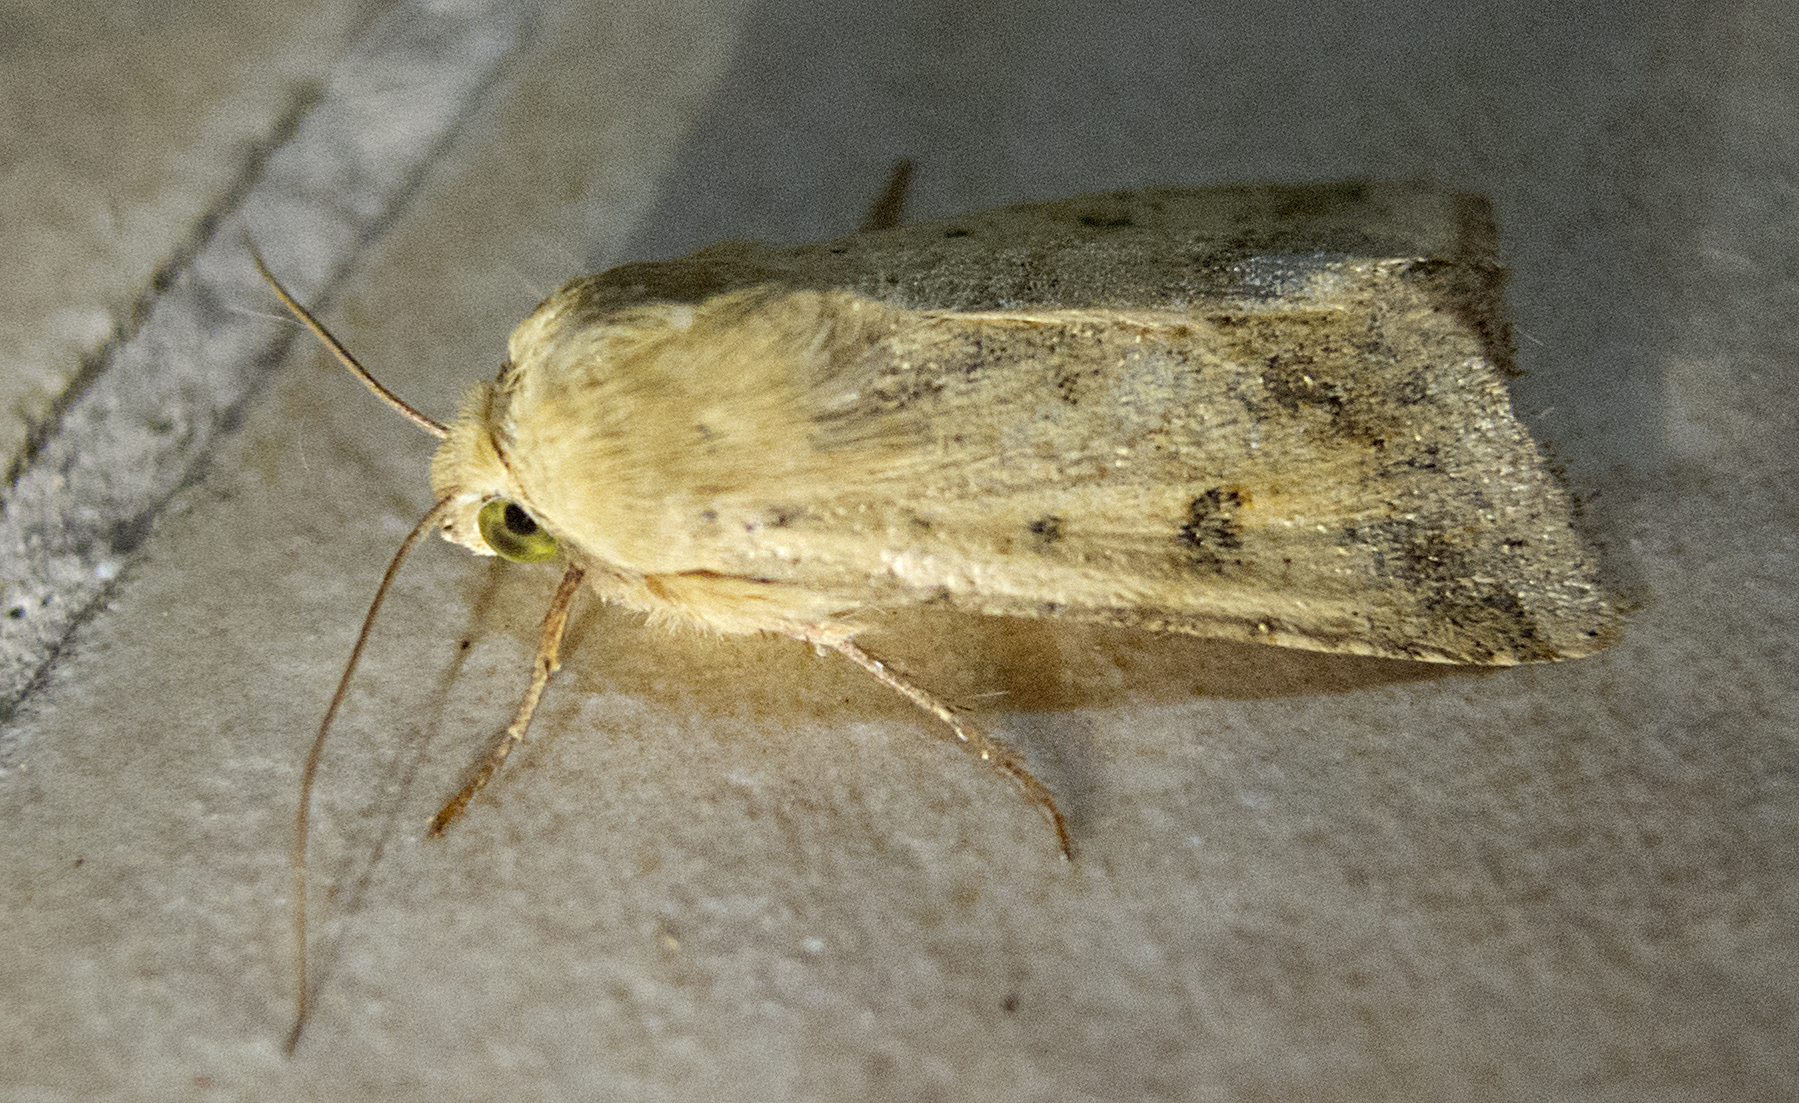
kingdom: Animalia
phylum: Arthropoda
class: Insecta
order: Lepidoptera
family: Noctuidae
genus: Helicoverpa
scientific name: Helicoverpa armigera
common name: Cotton bollworm
